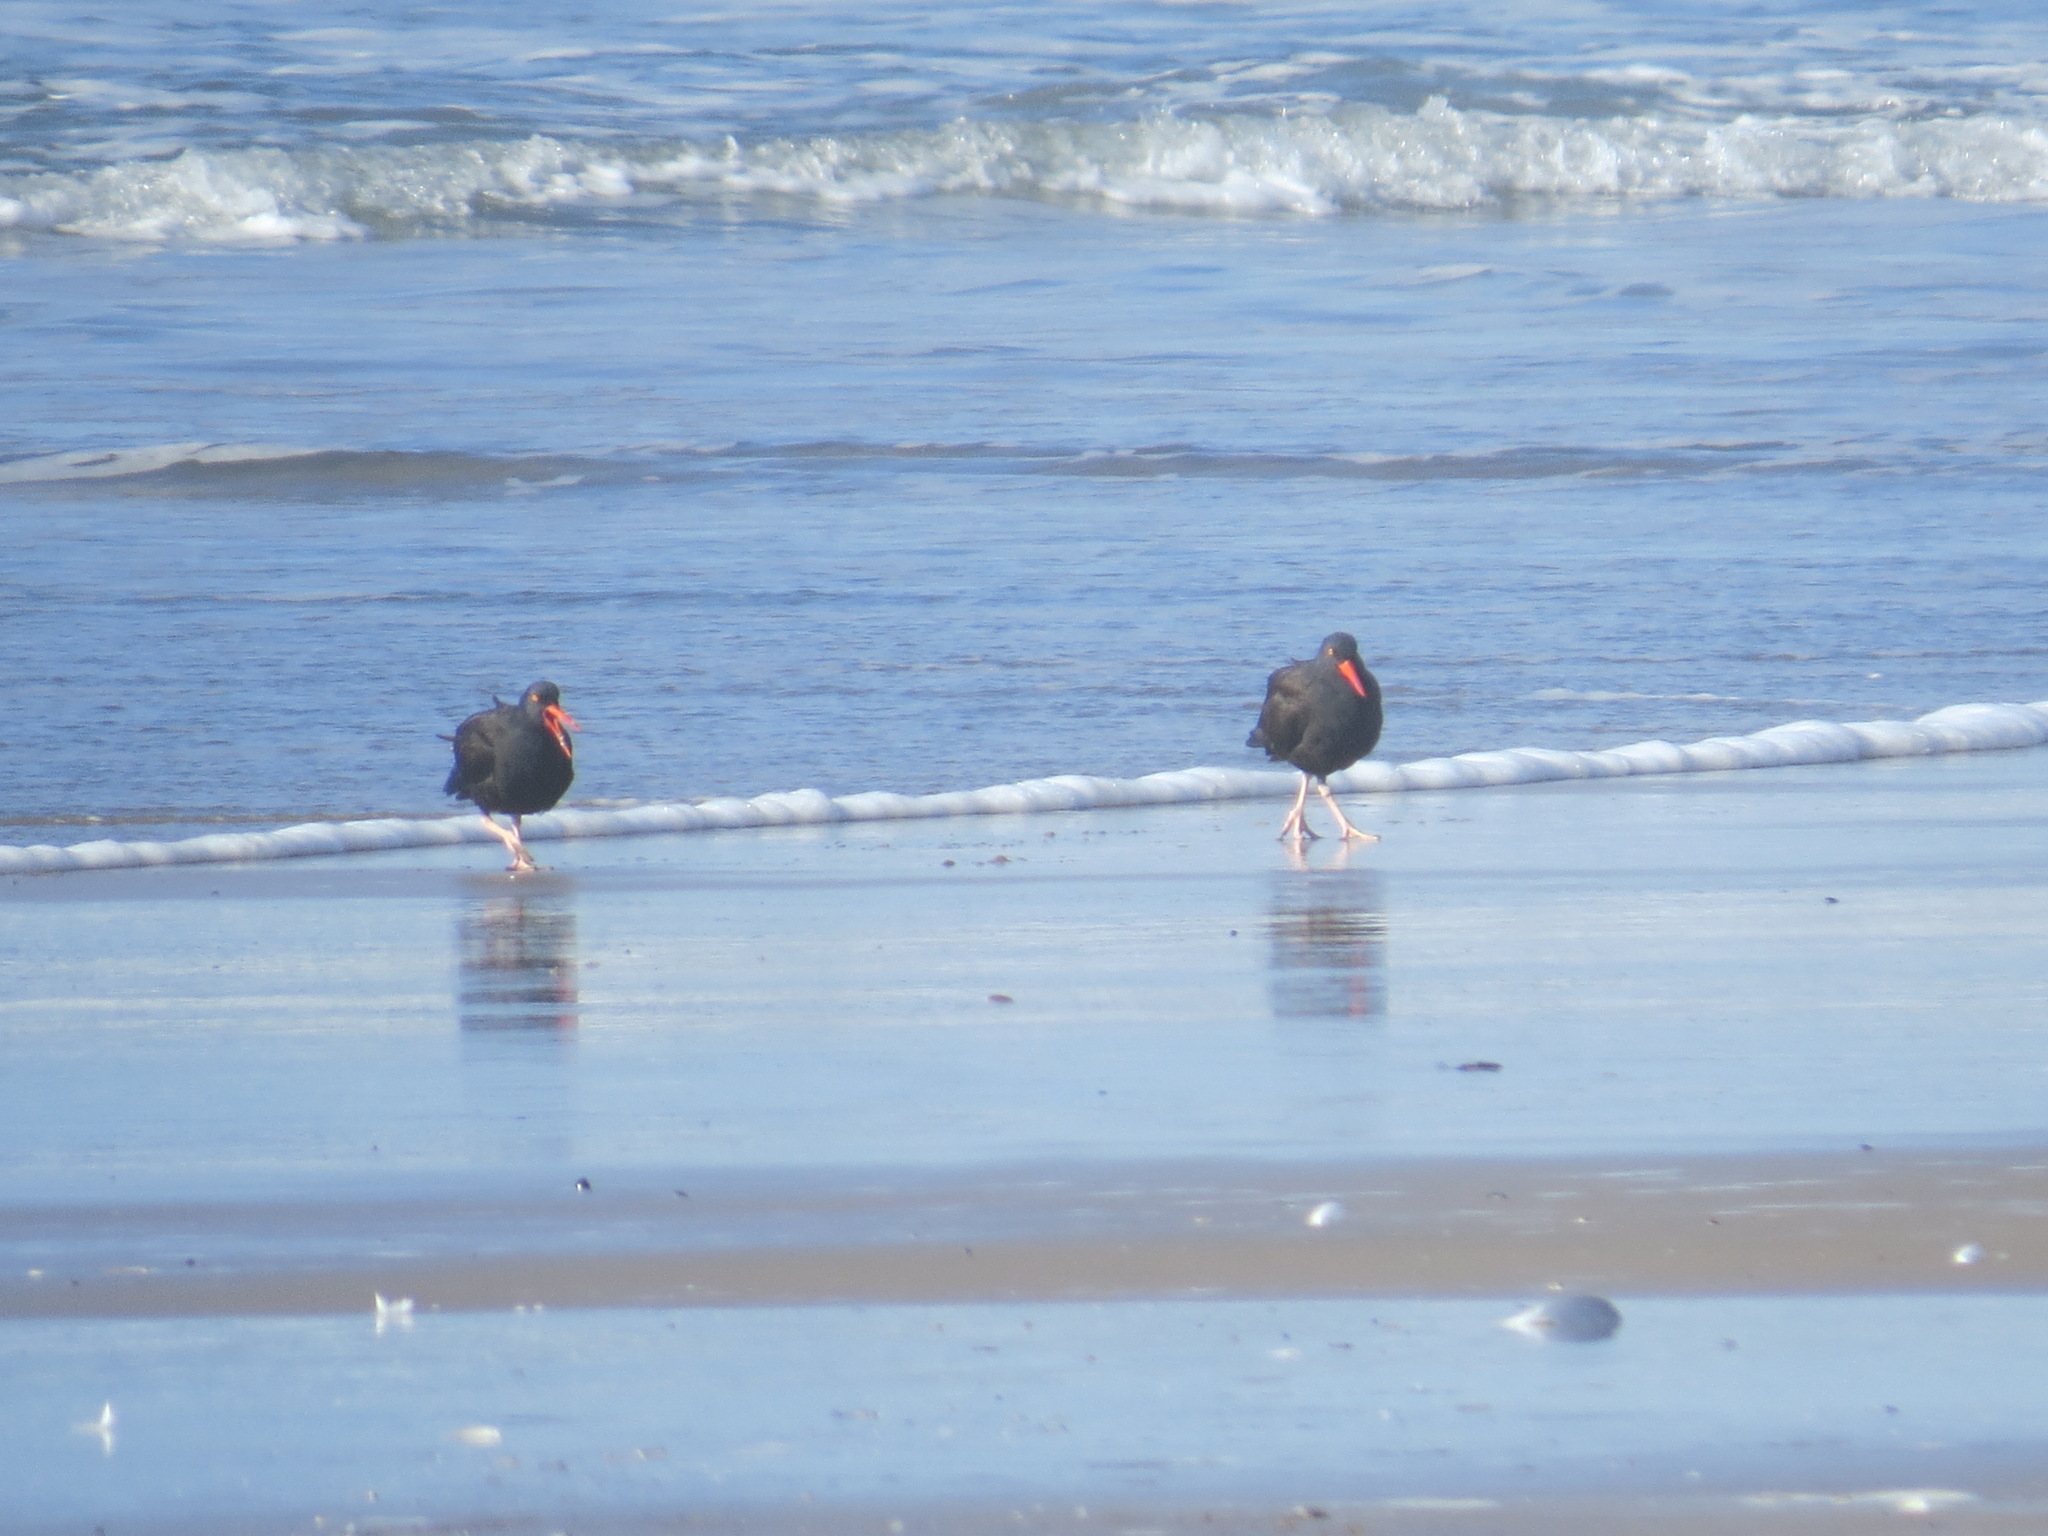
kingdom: Animalia
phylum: Chordata
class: Aves
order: Charadriiformes
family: Haematopodidae
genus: Haematopus
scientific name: Haematopus bachmani
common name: Black oystercatcher
